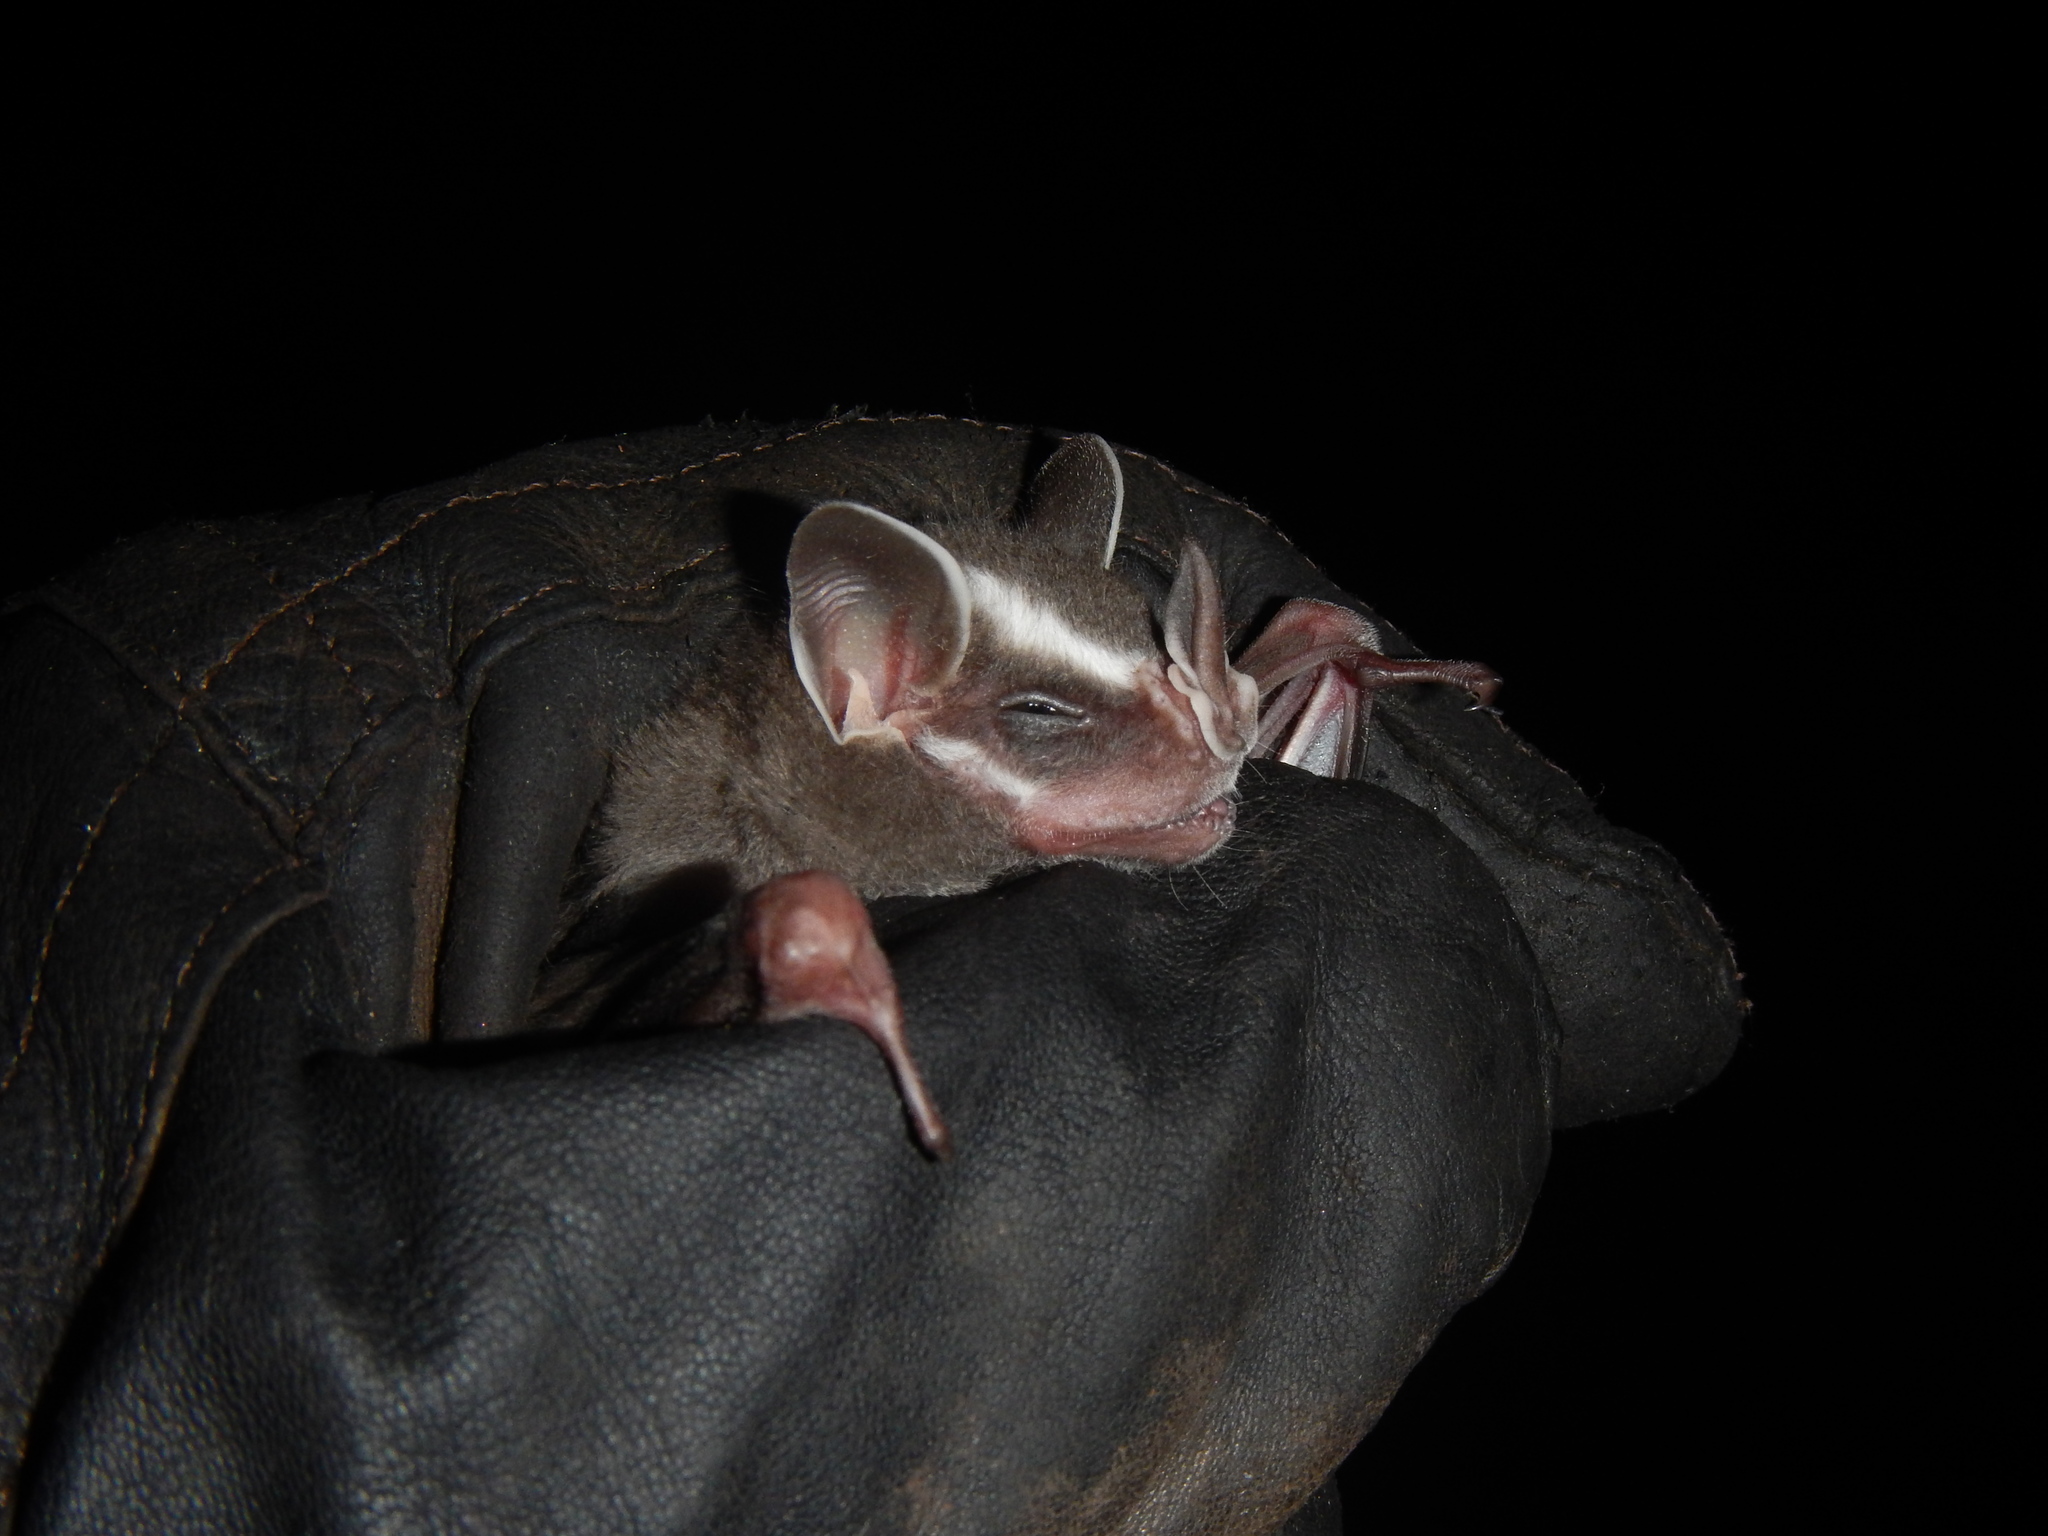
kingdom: Animalia
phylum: Chordata
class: Mammalia
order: Chiroptera
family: Phyllostomidae
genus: Uroderma
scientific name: Uroderma bilobatum
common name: Common tent-making bat
